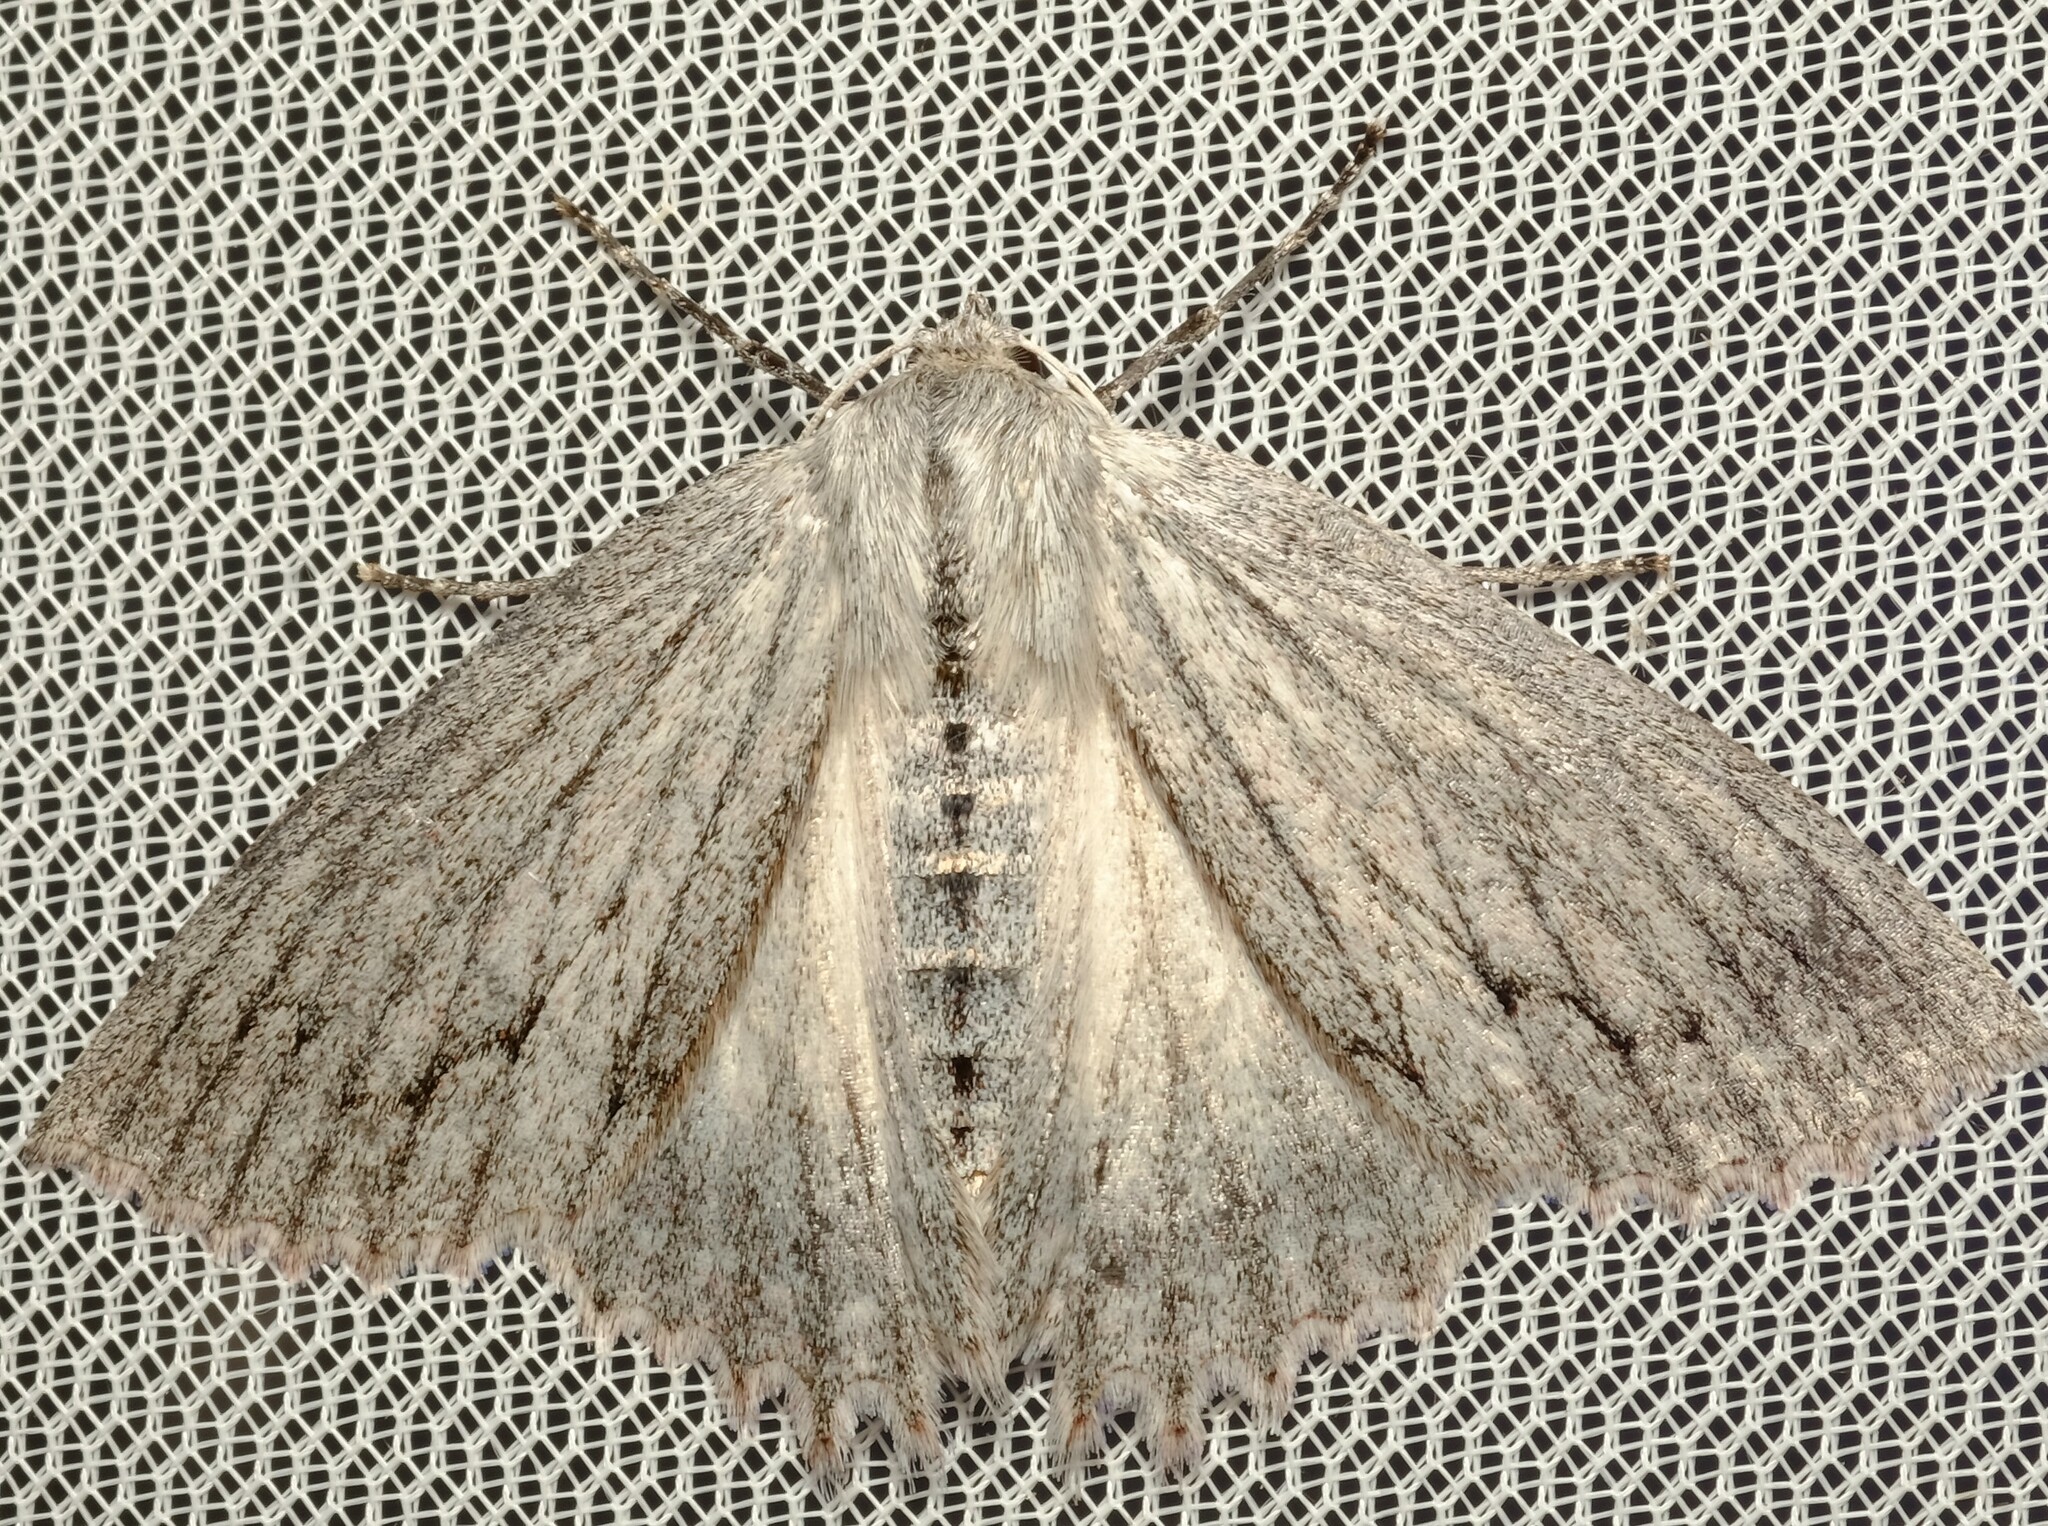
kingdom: Animalia
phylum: Arthropoda
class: Insecta
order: Lepidoptera
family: Geometridae
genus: Paraterpna
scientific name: Paraterpna harrisoni
